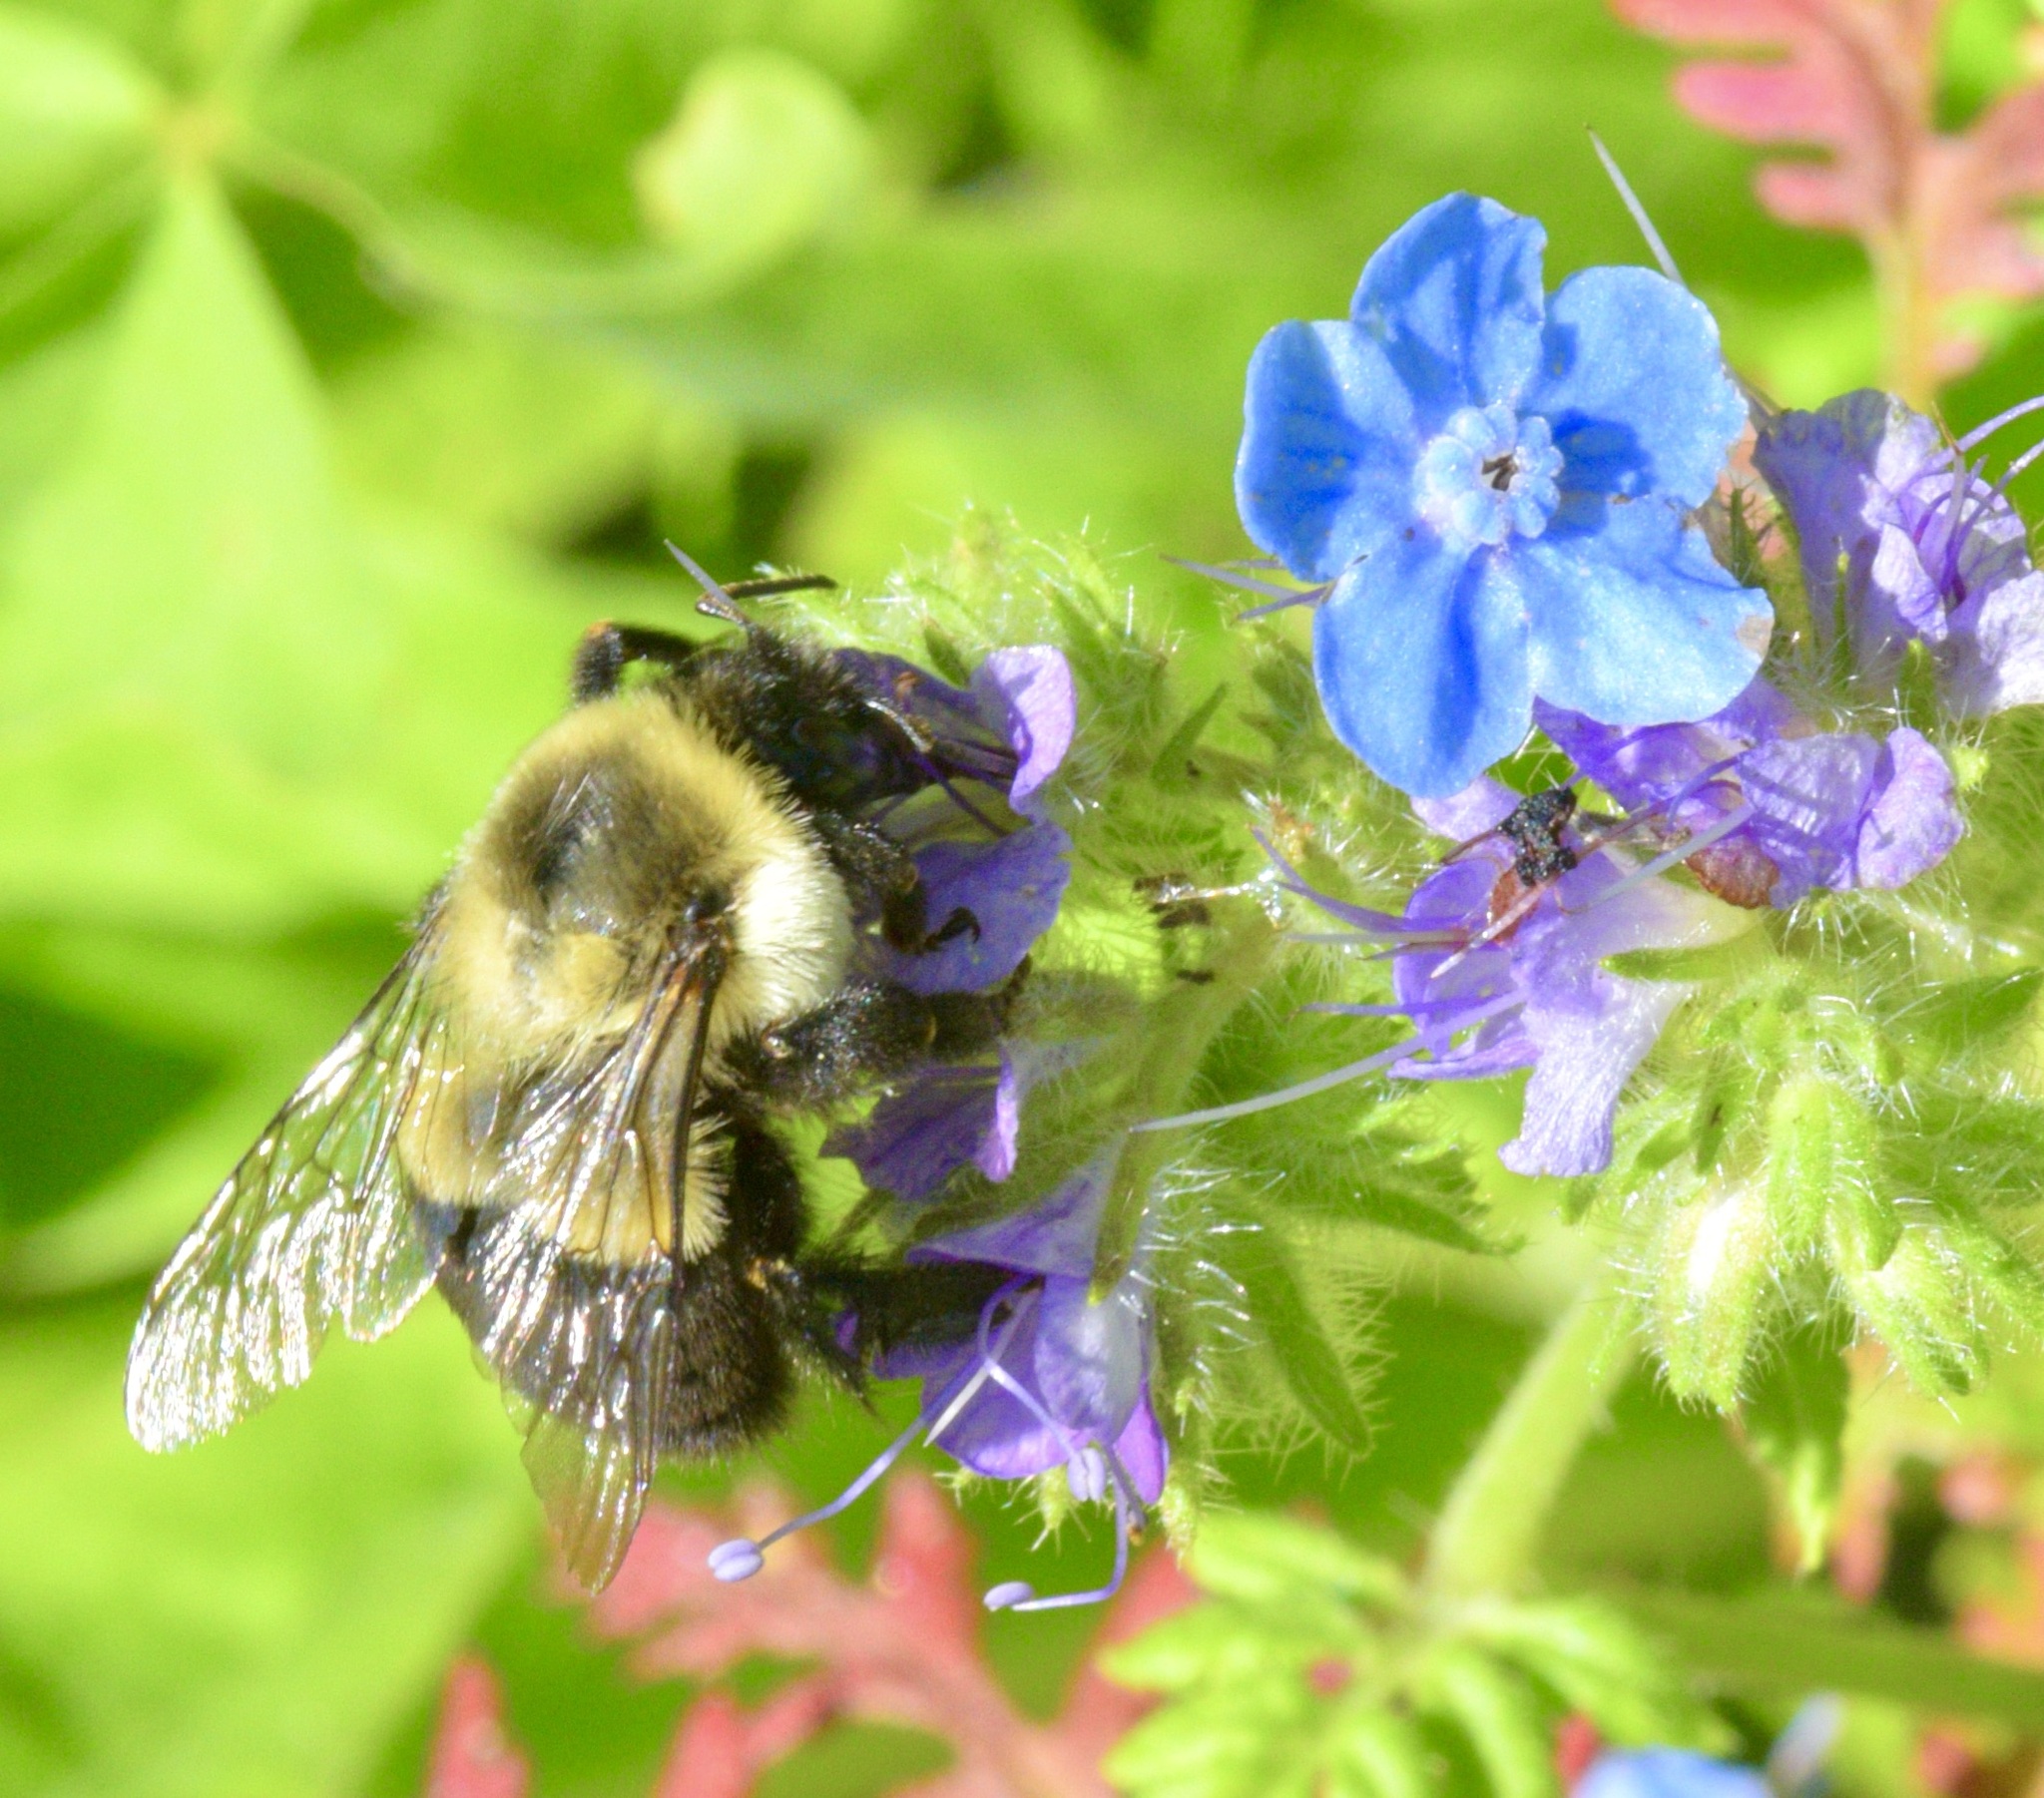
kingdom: Animalia
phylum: Arthropoda
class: Insecta
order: Hymenoptera
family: Apidae
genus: Bombus
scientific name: Bombus impatiens
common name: Common eastern bumble bee
